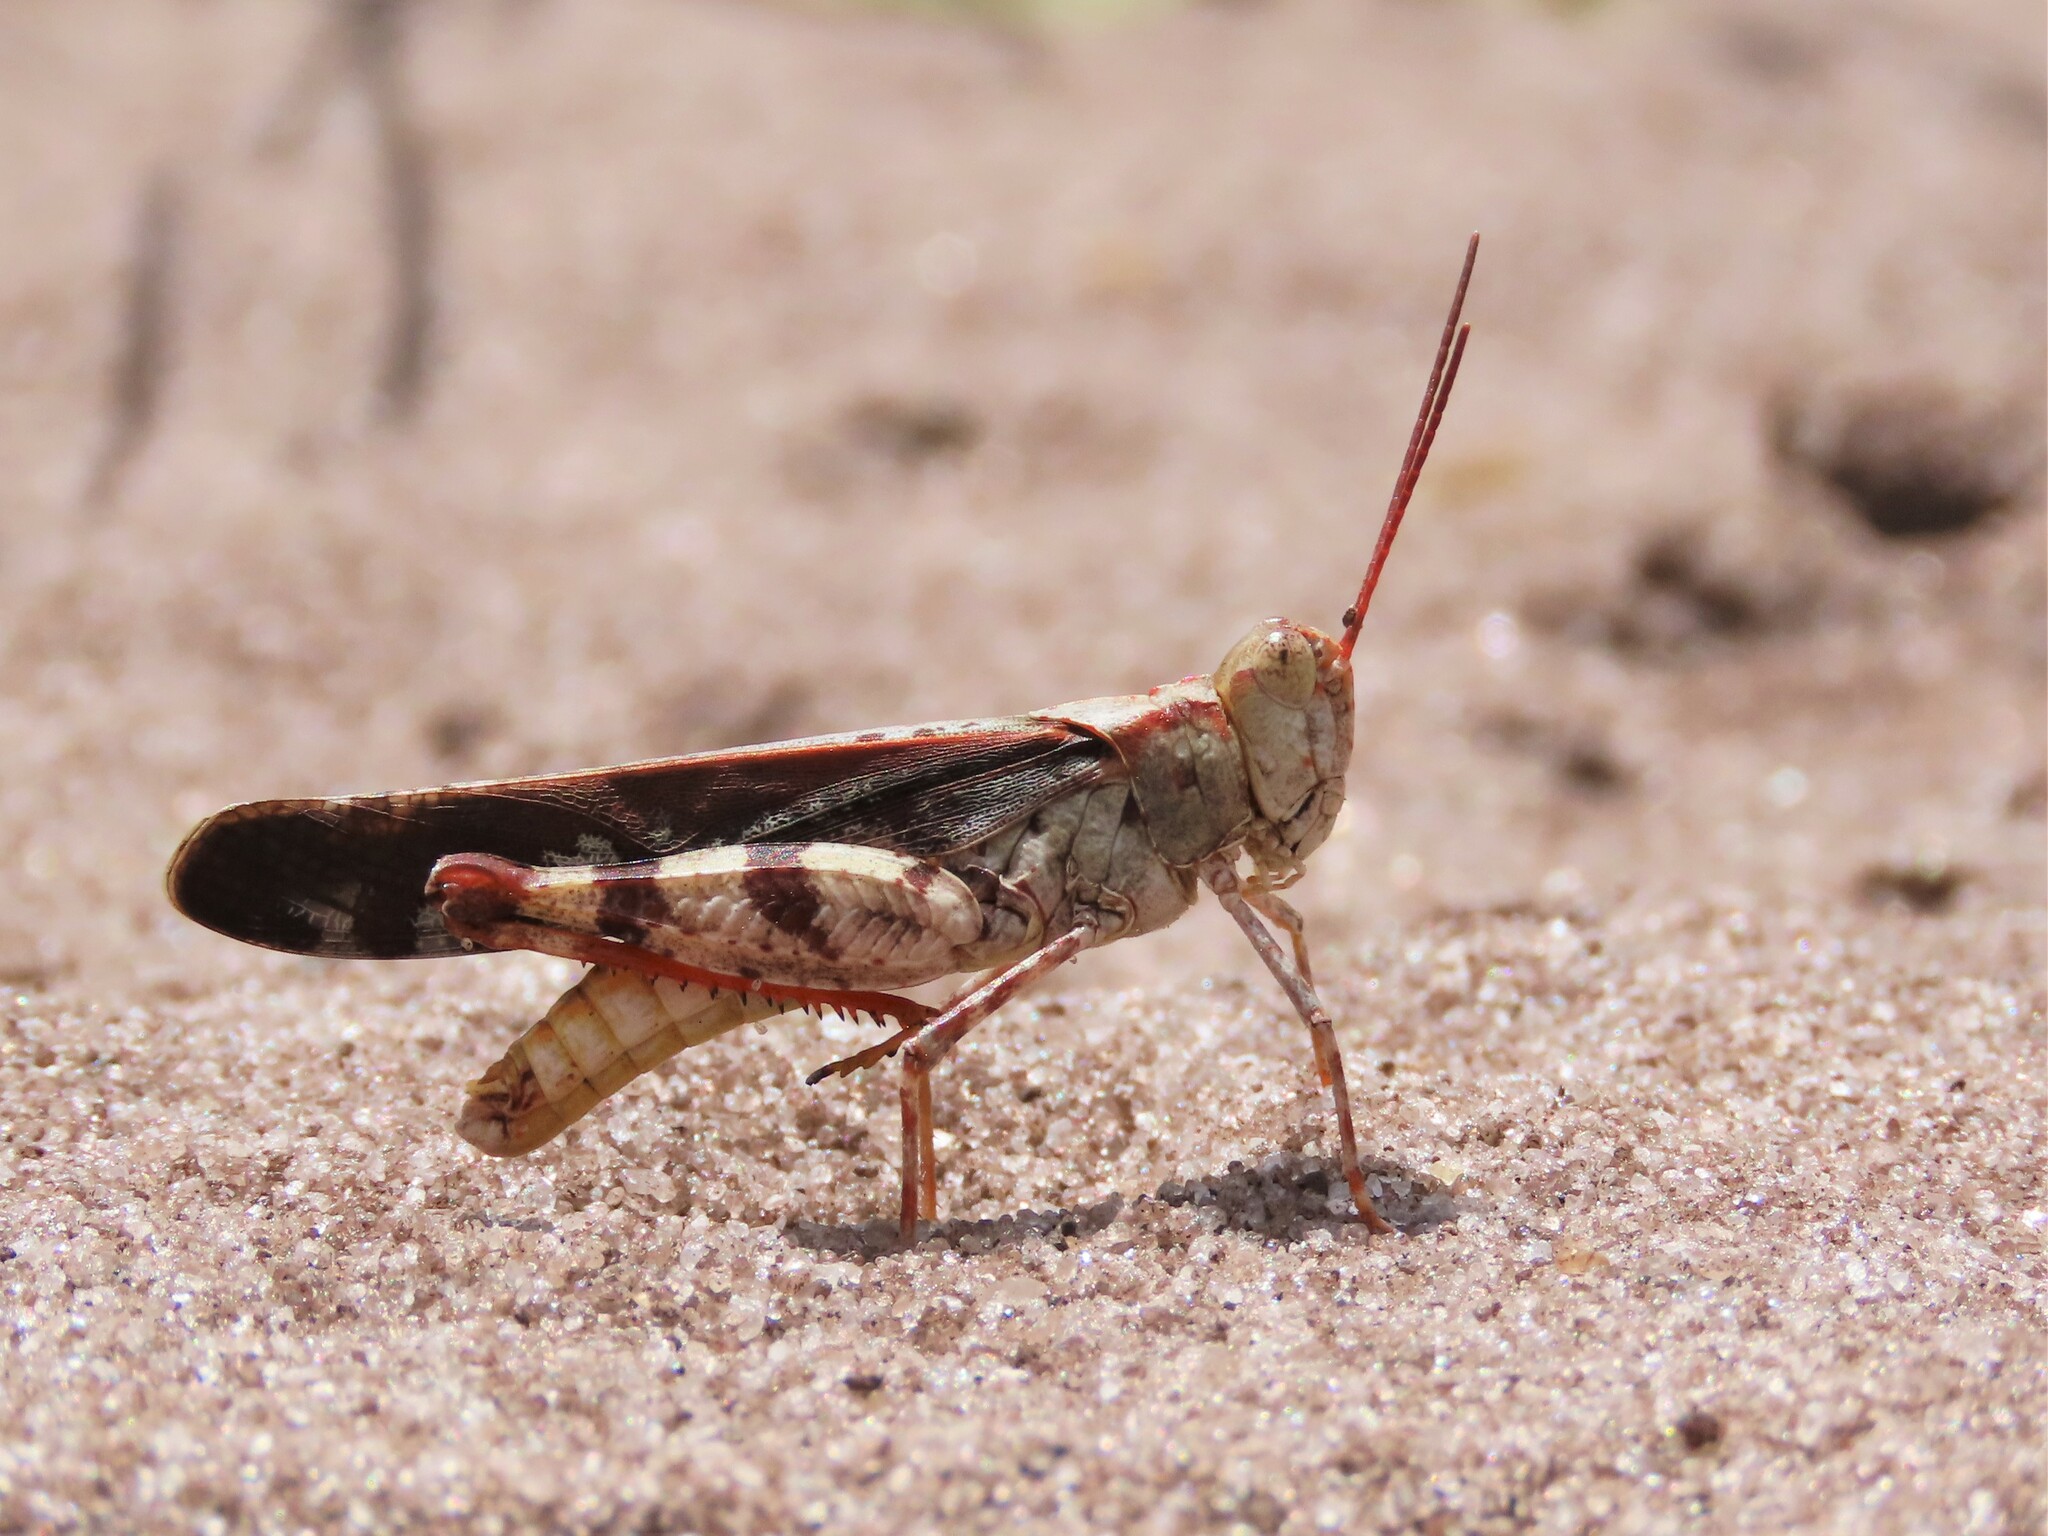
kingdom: Animalia
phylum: Arthropoda
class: Insecta
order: Orthoptera
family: Acrididae
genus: Spharagemon
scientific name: Spharagemon marmoratum
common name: Marbled grasshopper
